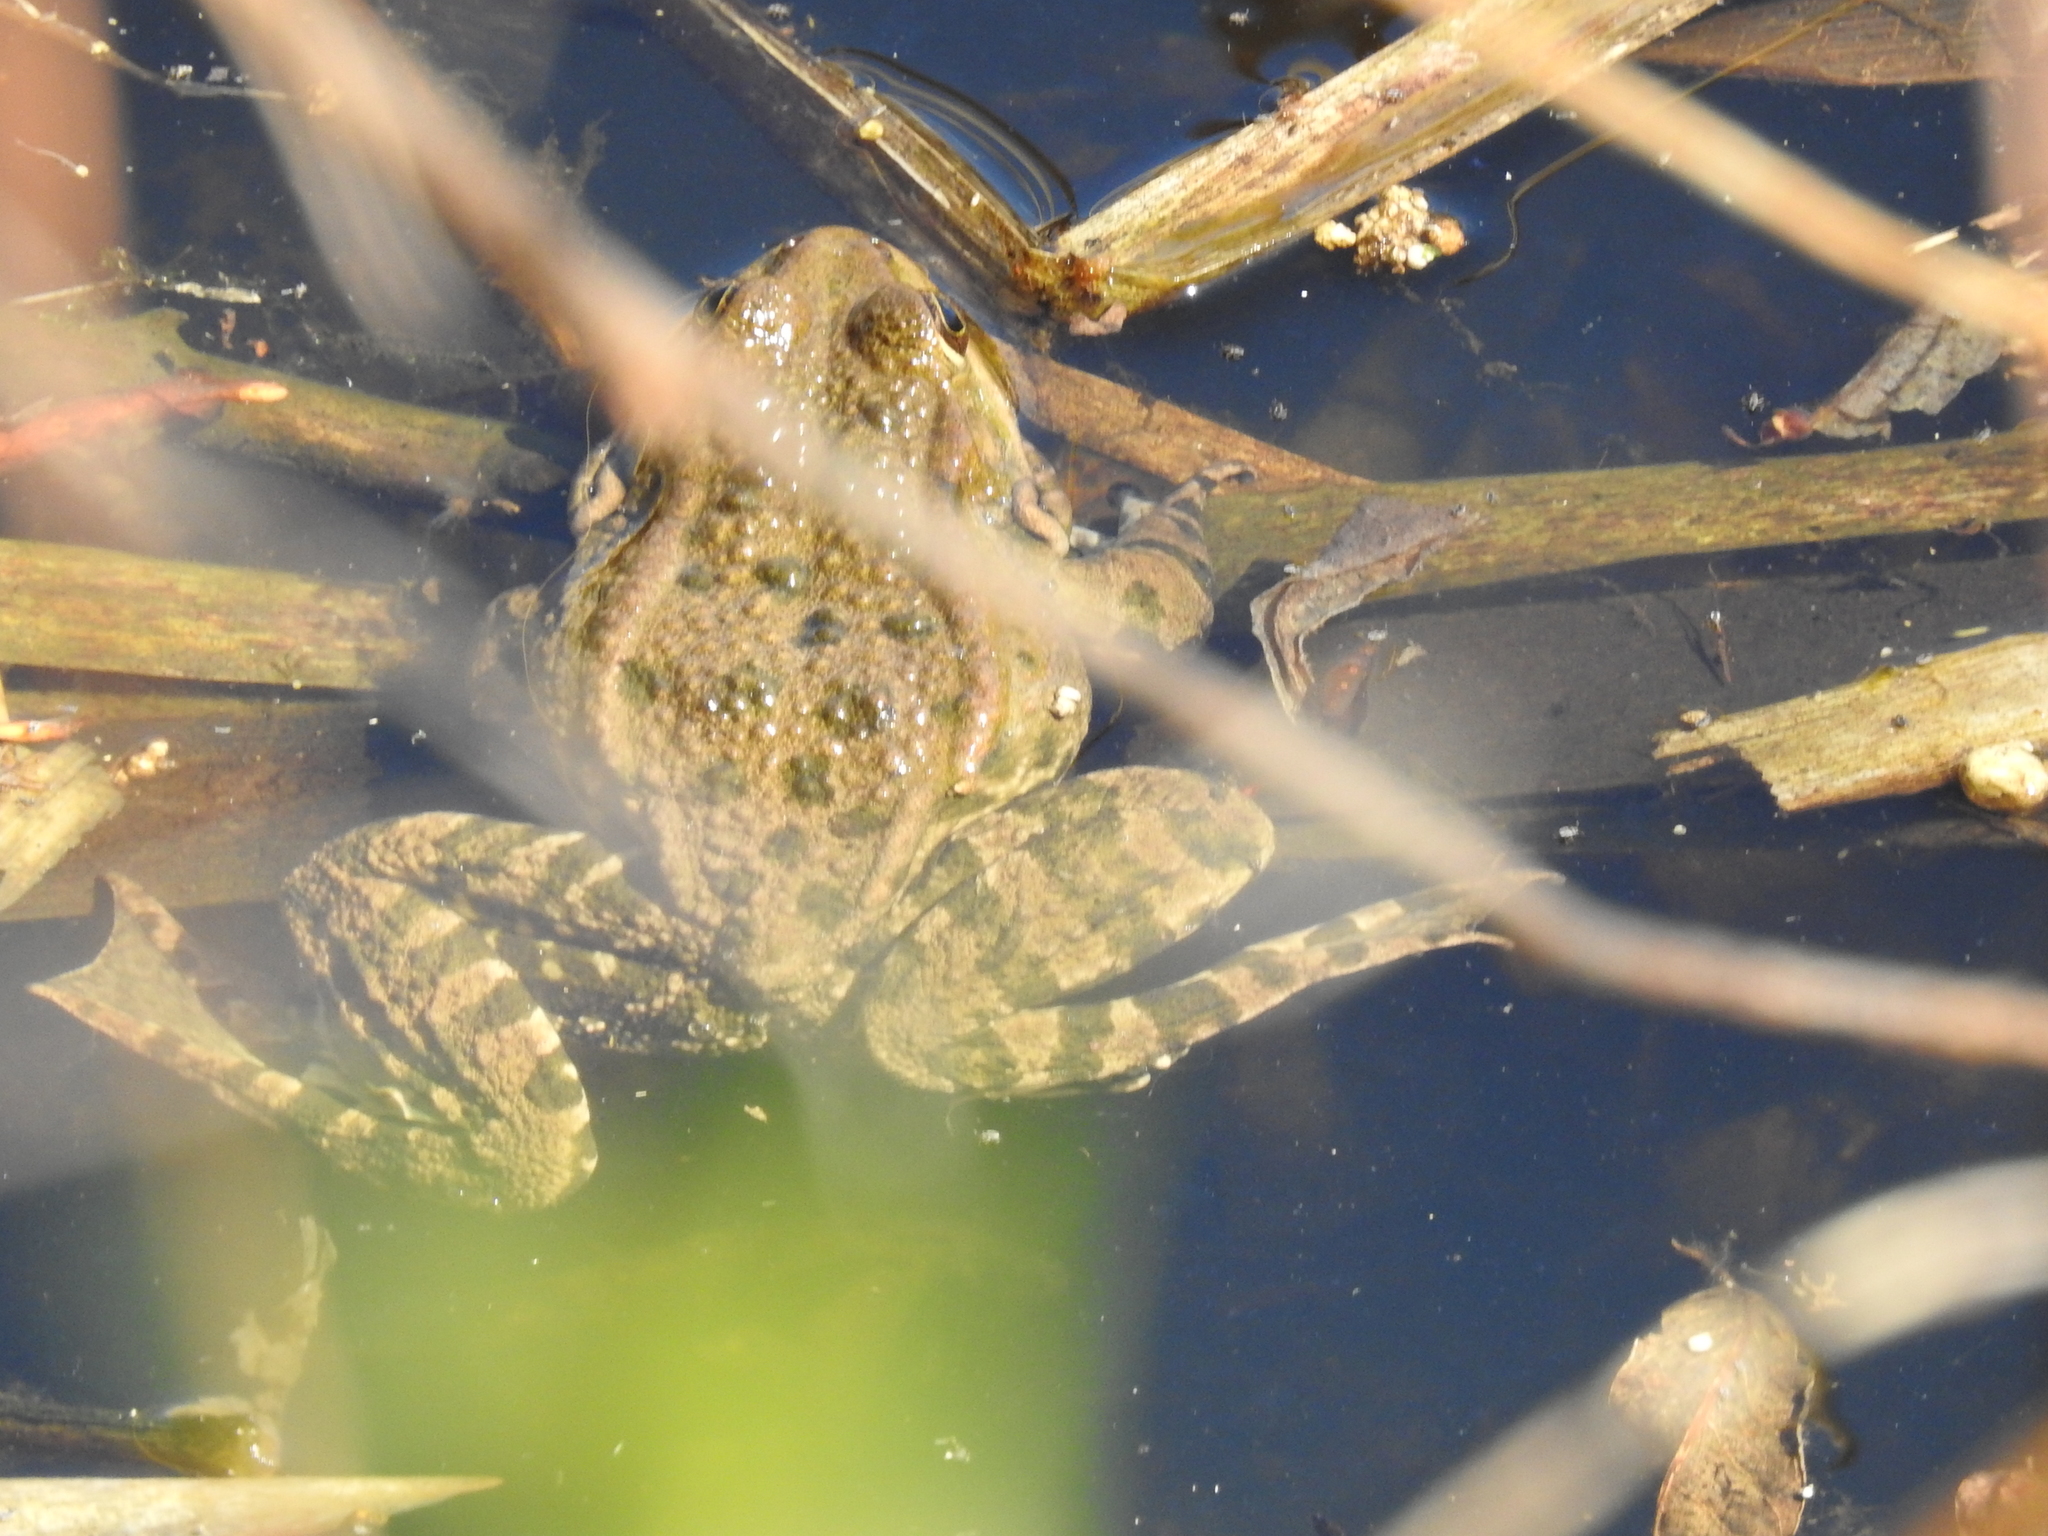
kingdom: Animalia
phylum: Chordata
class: Amphibia
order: Anura
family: Ranidae
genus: Pelophylax
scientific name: Pelophylax ridibundus
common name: Marsh frog
